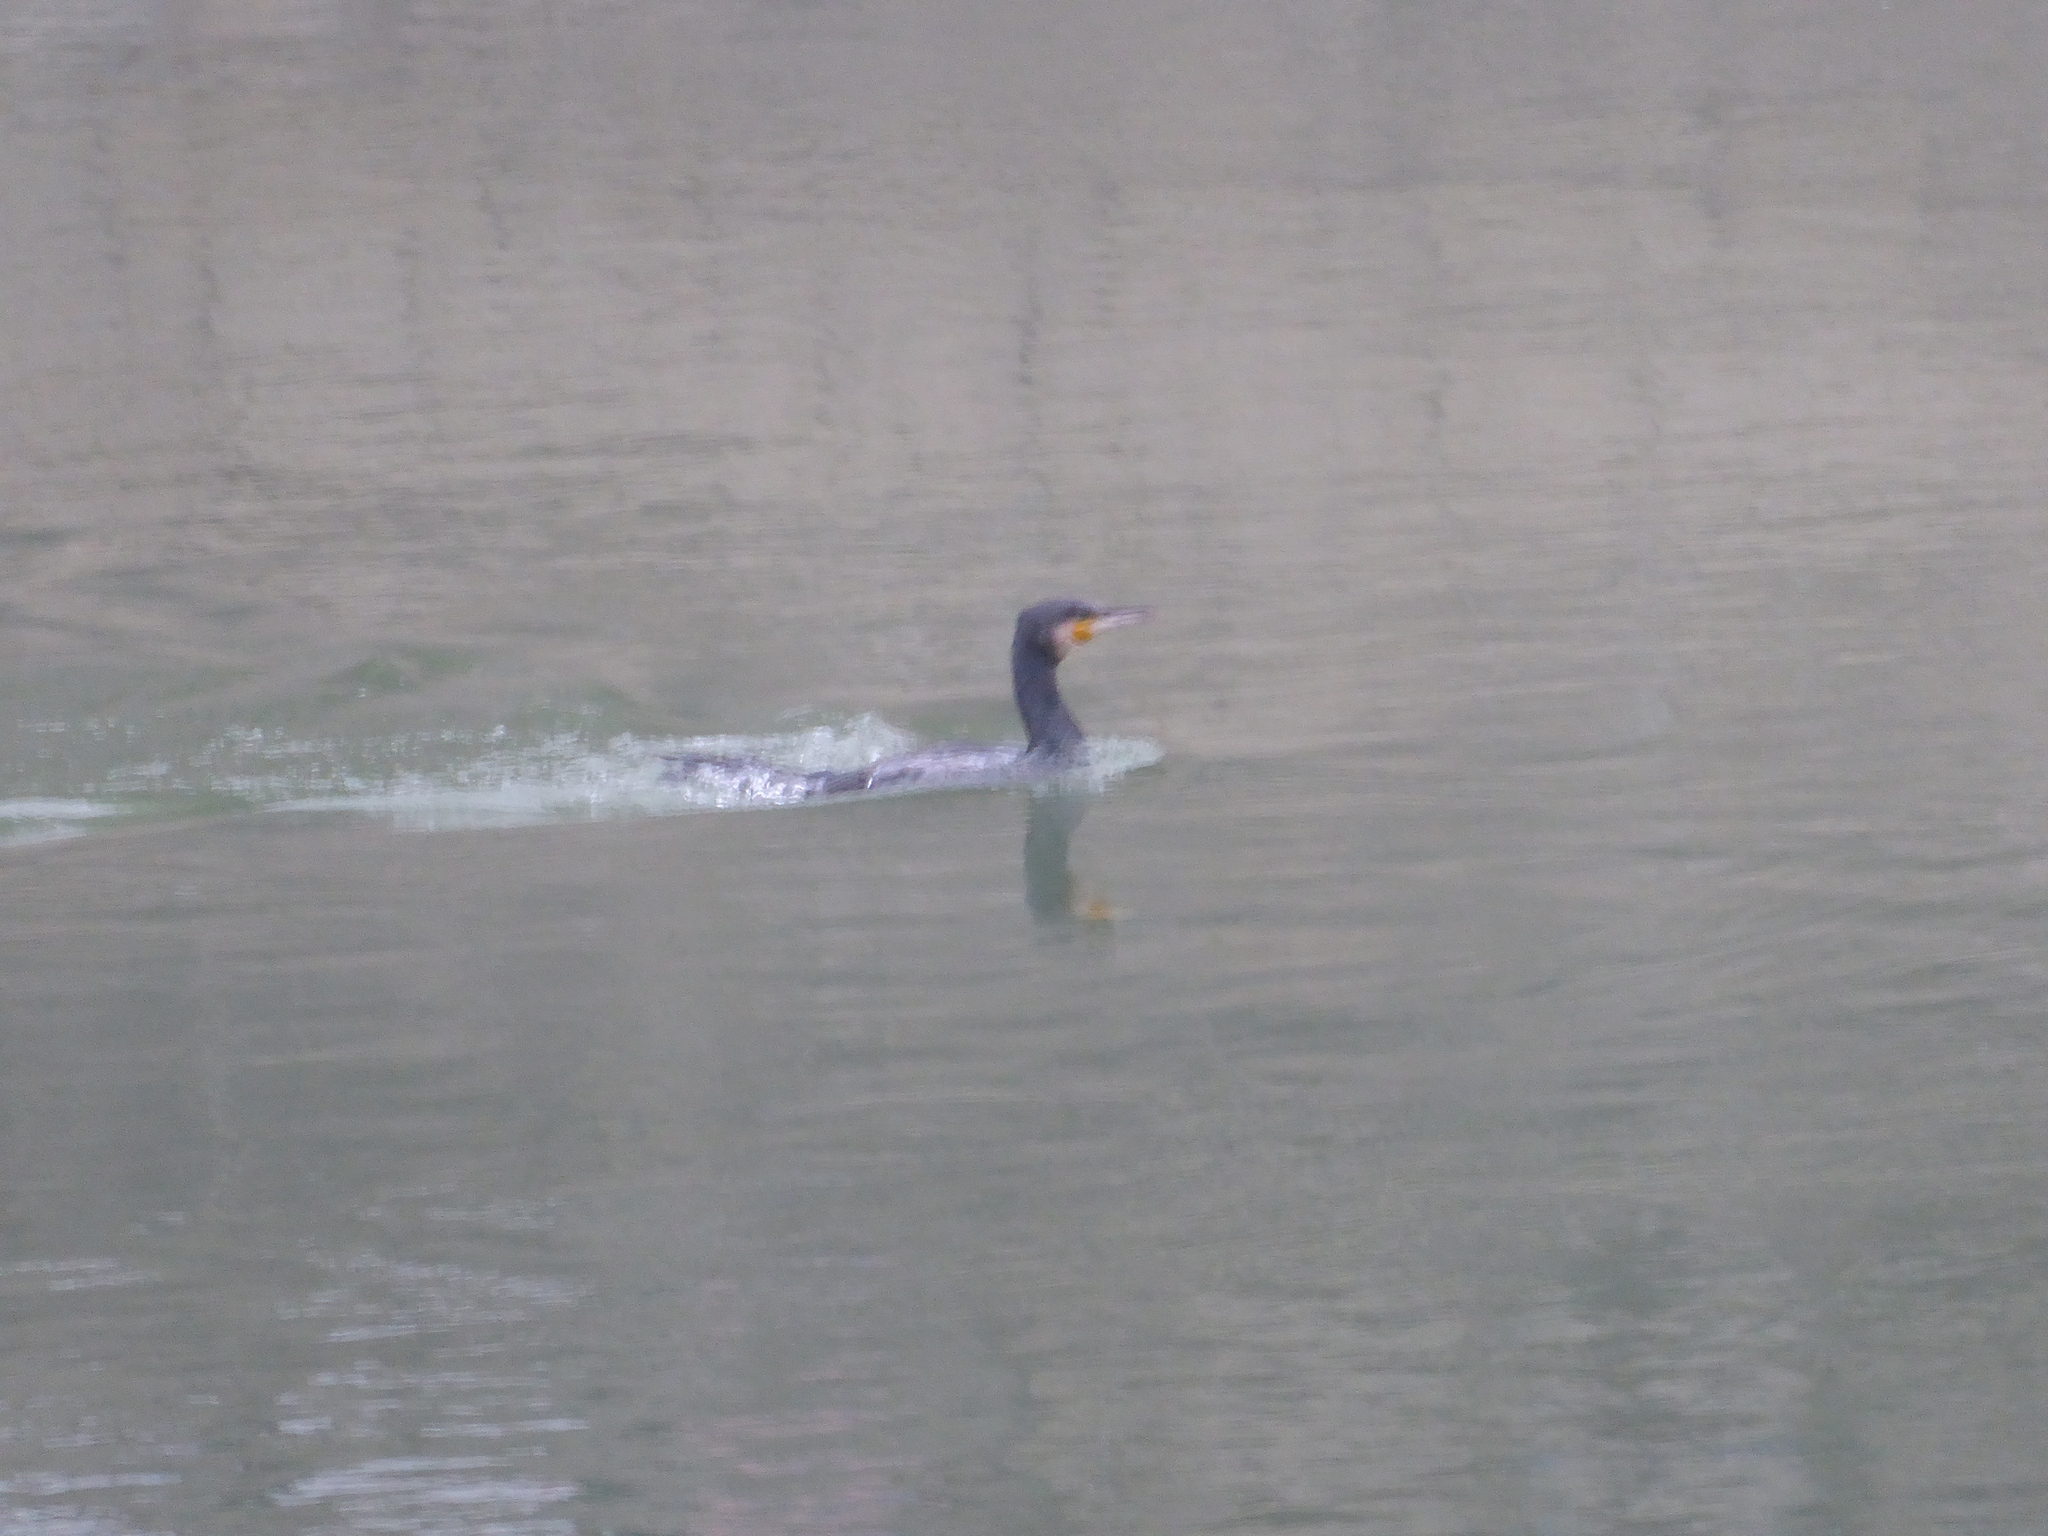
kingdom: Animalia
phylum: Chordata
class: Aves
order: Suliformes
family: Phalacrocoracidae
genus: Phalacrocorax
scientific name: Phalacrocorax carbo
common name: Great cormorant
